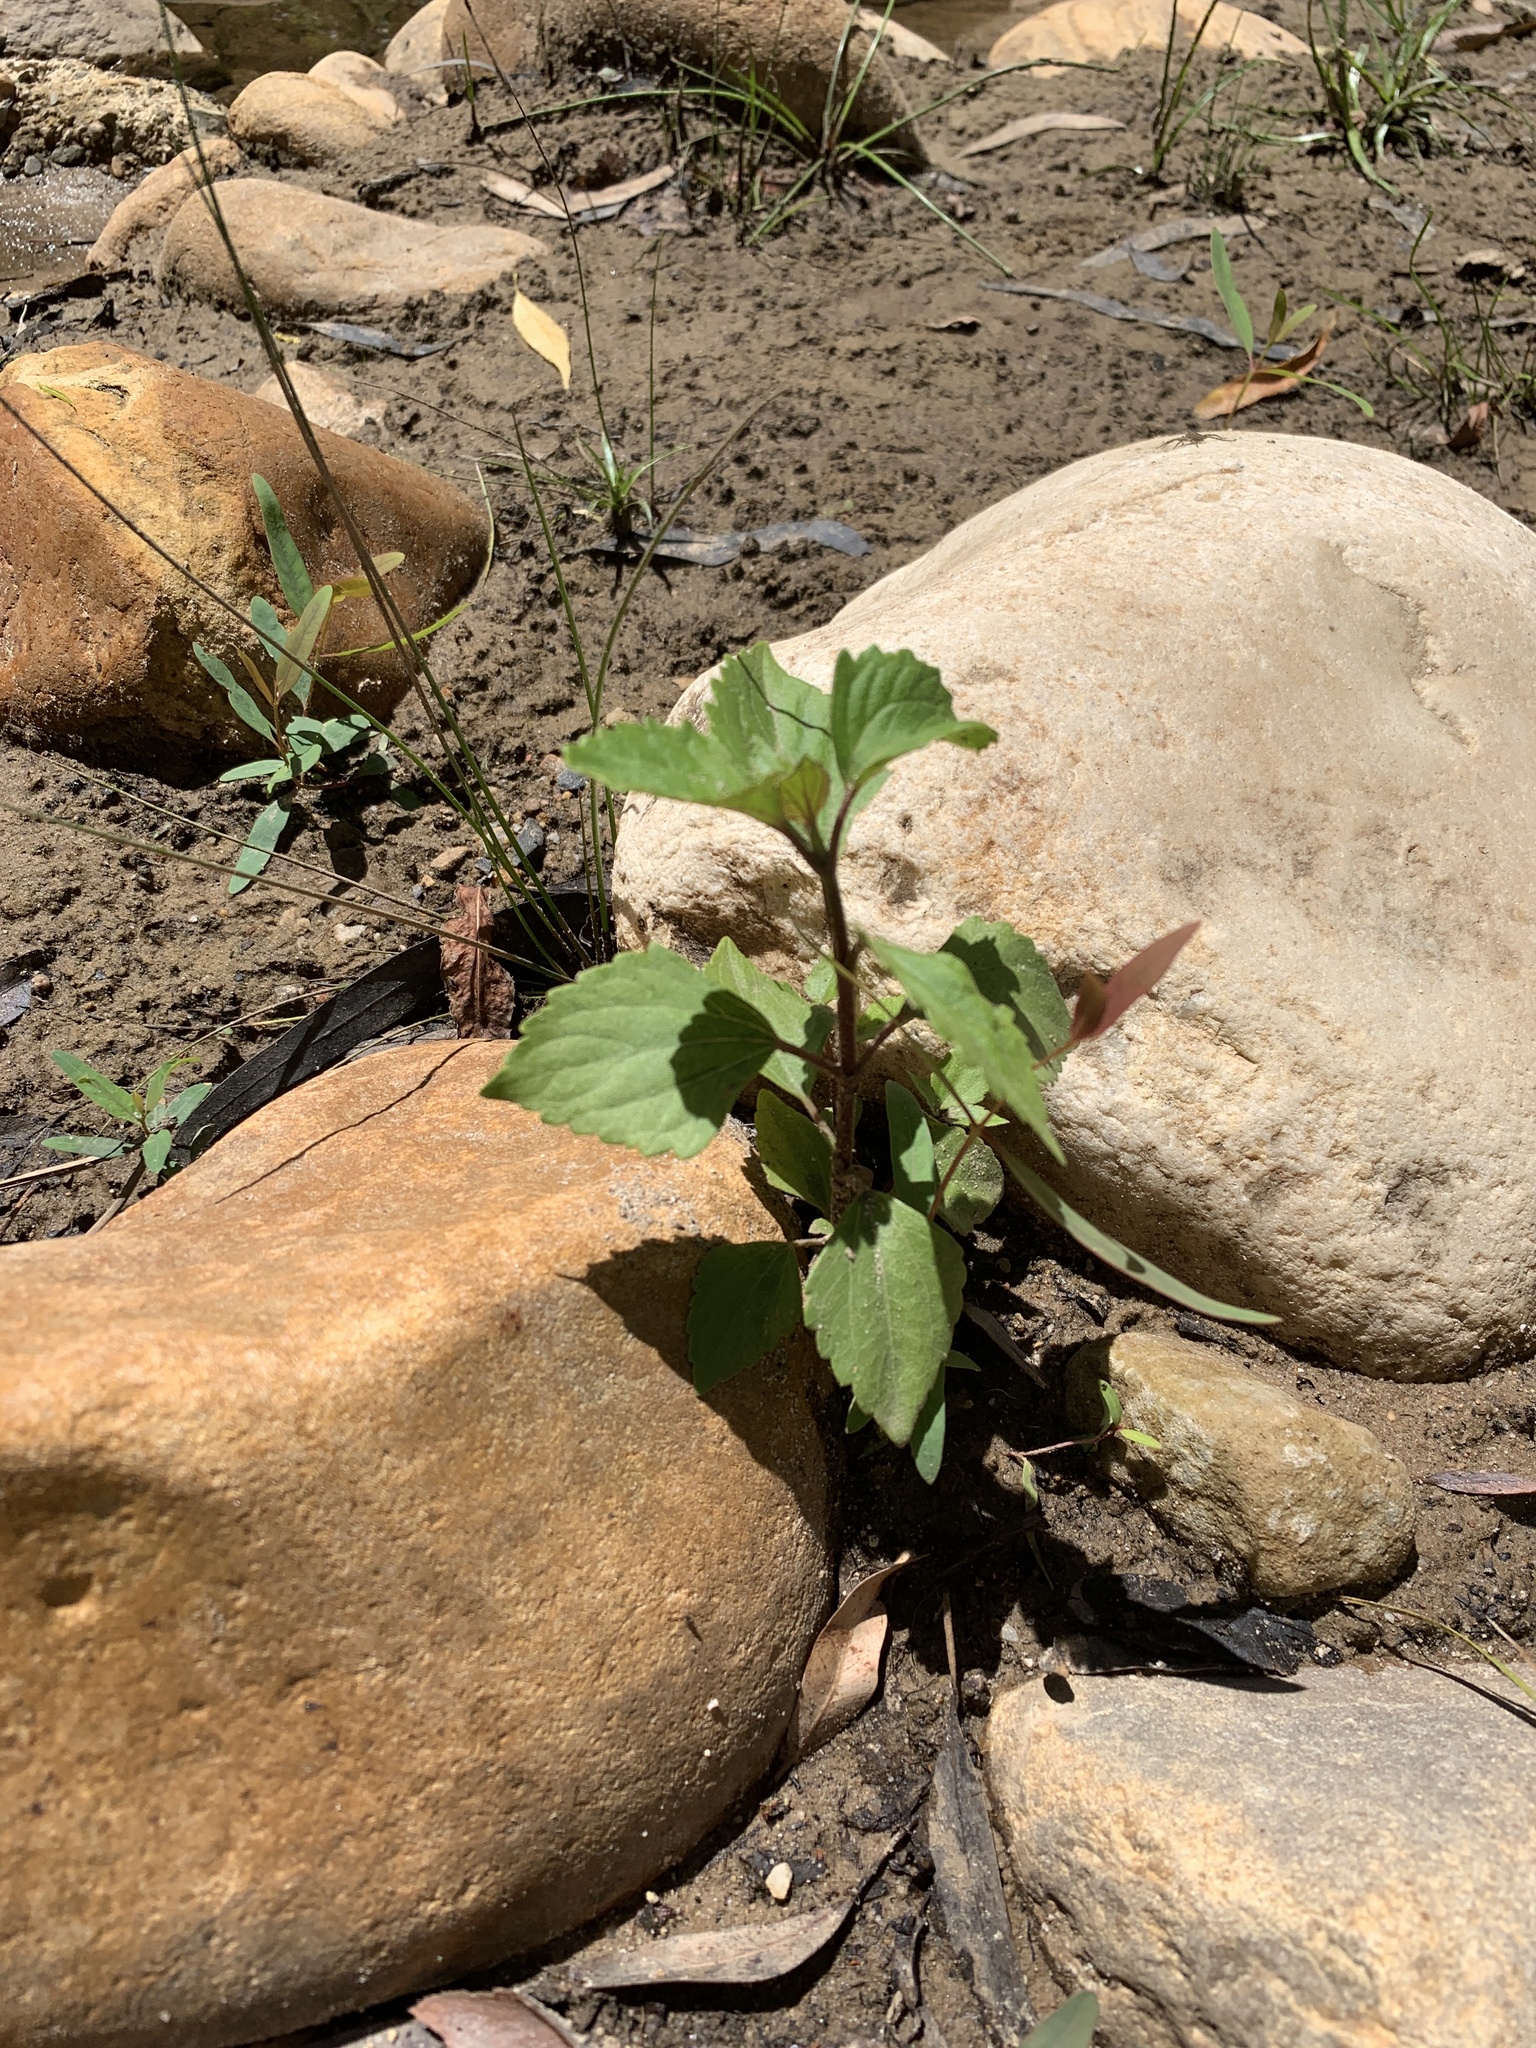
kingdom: Plantae
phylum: Tracheophyta
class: Magnoliopsida
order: Asterales
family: Asteraceae
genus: Ageratina
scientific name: Ageratina adenophora
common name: Sticky snakeroot
